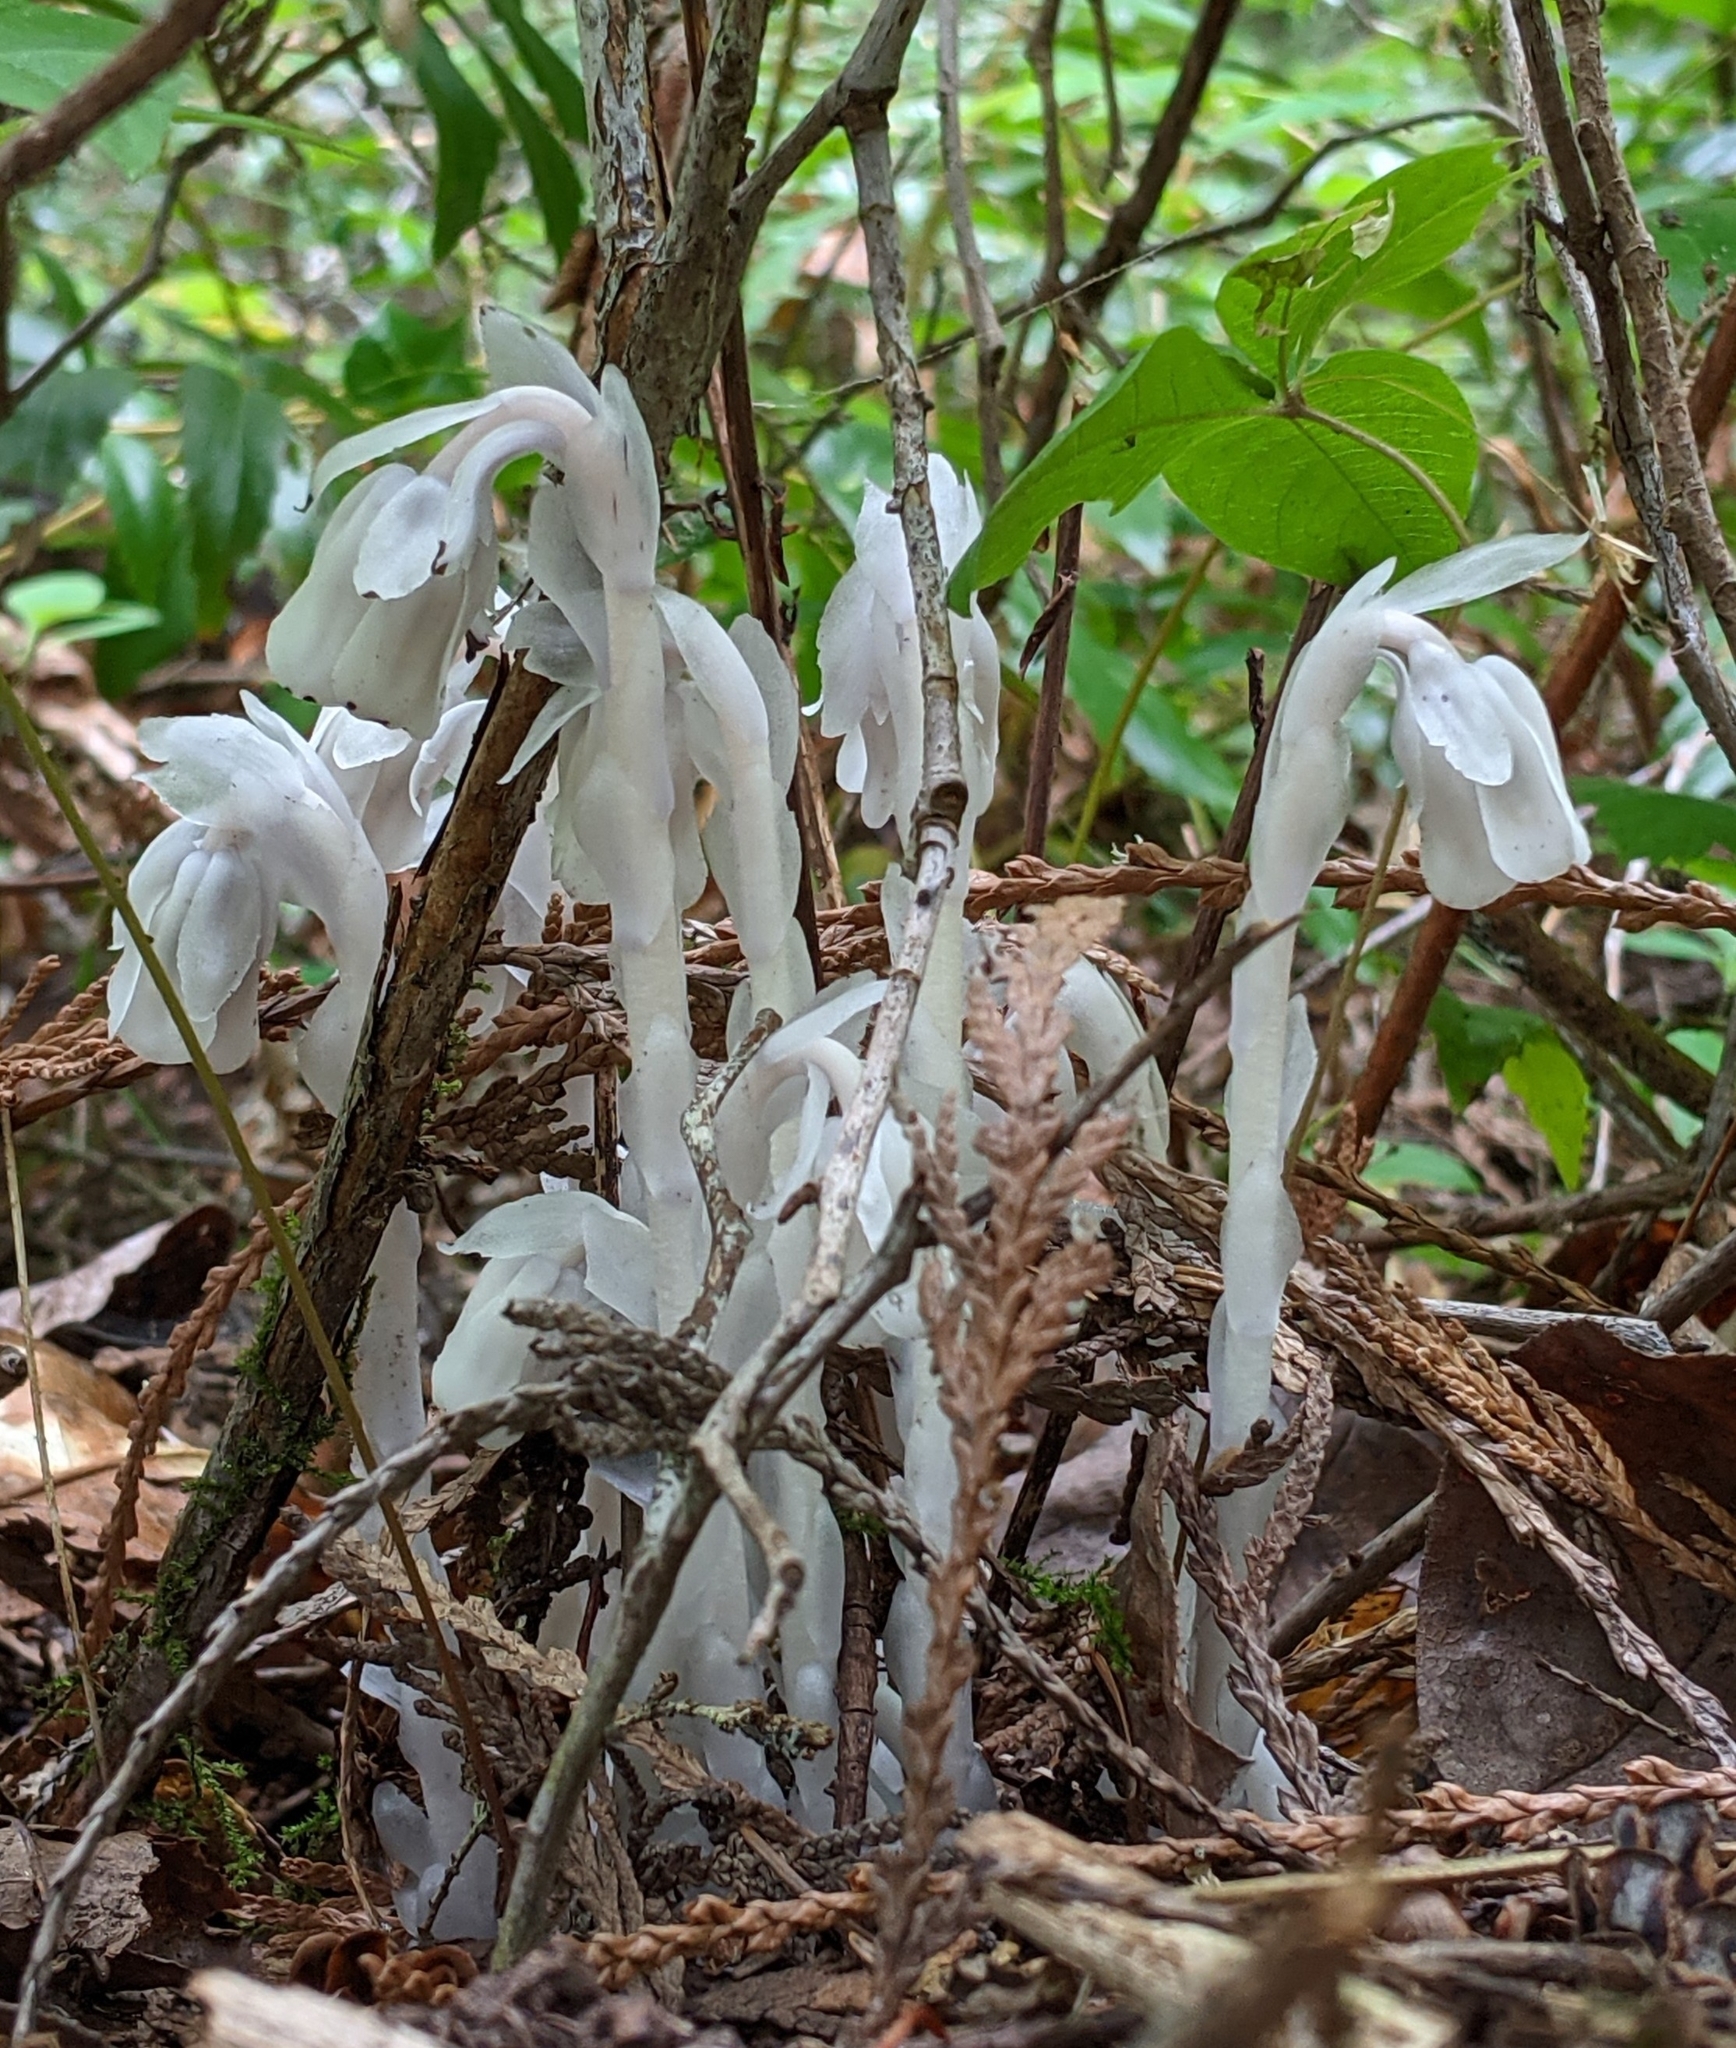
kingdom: Plantae
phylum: Tracheophyta
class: Magnoliopsida
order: Ericales
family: Ericaceae
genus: Monotropa
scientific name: Monotropa uniflora
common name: Convulsion root
